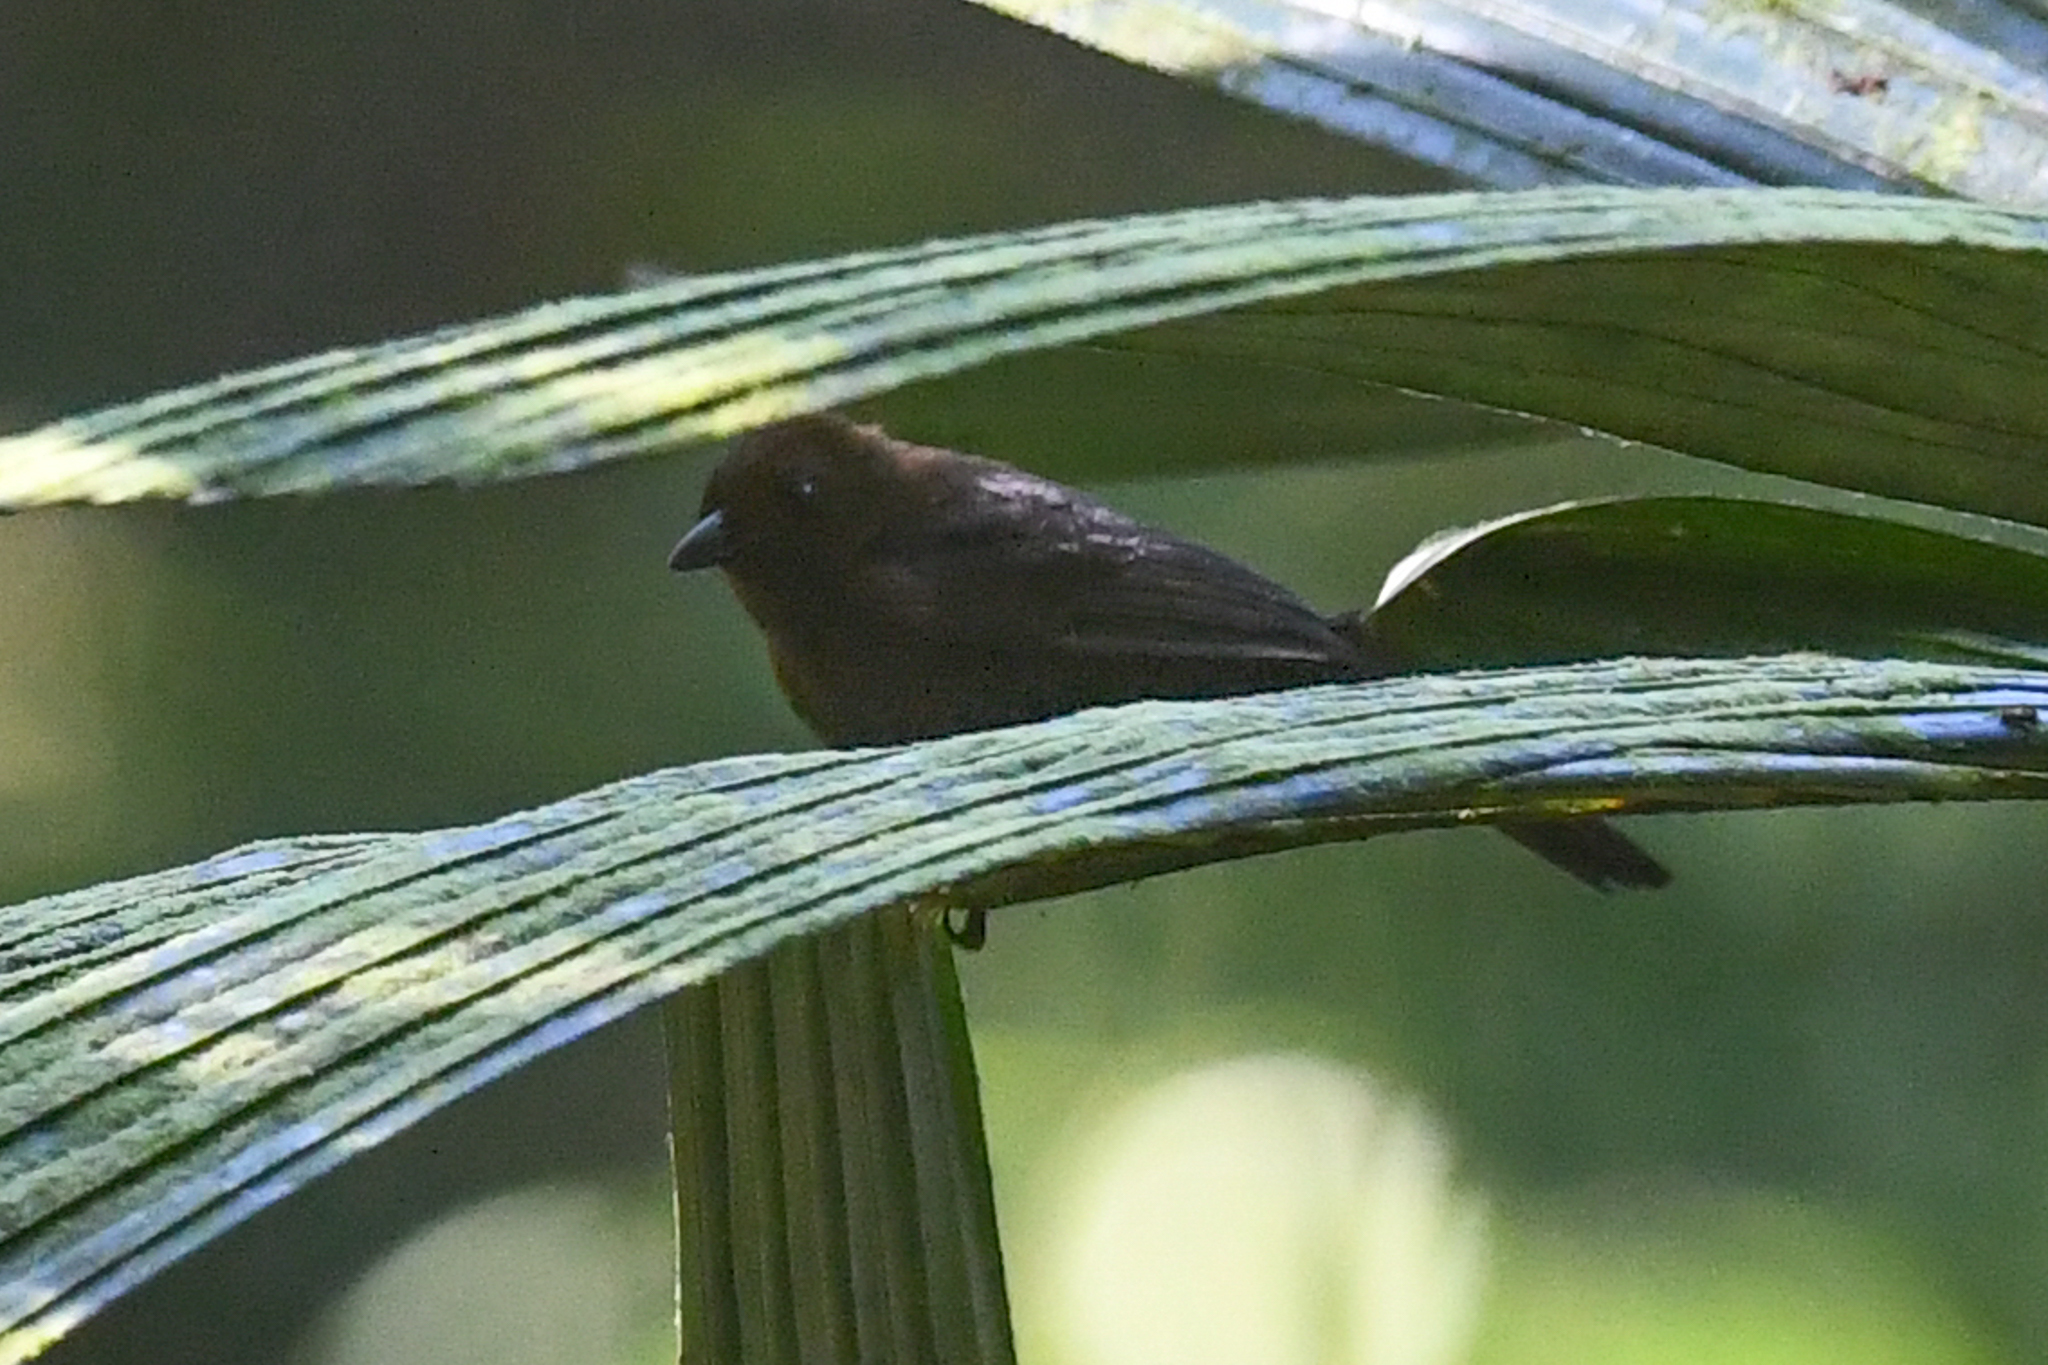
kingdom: Animalia
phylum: Chordata
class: Aves
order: Passeriformes
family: Thraupidae
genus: Tachyphonus
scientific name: Tachyphonus delatrii
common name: Tawny-crested tanager
